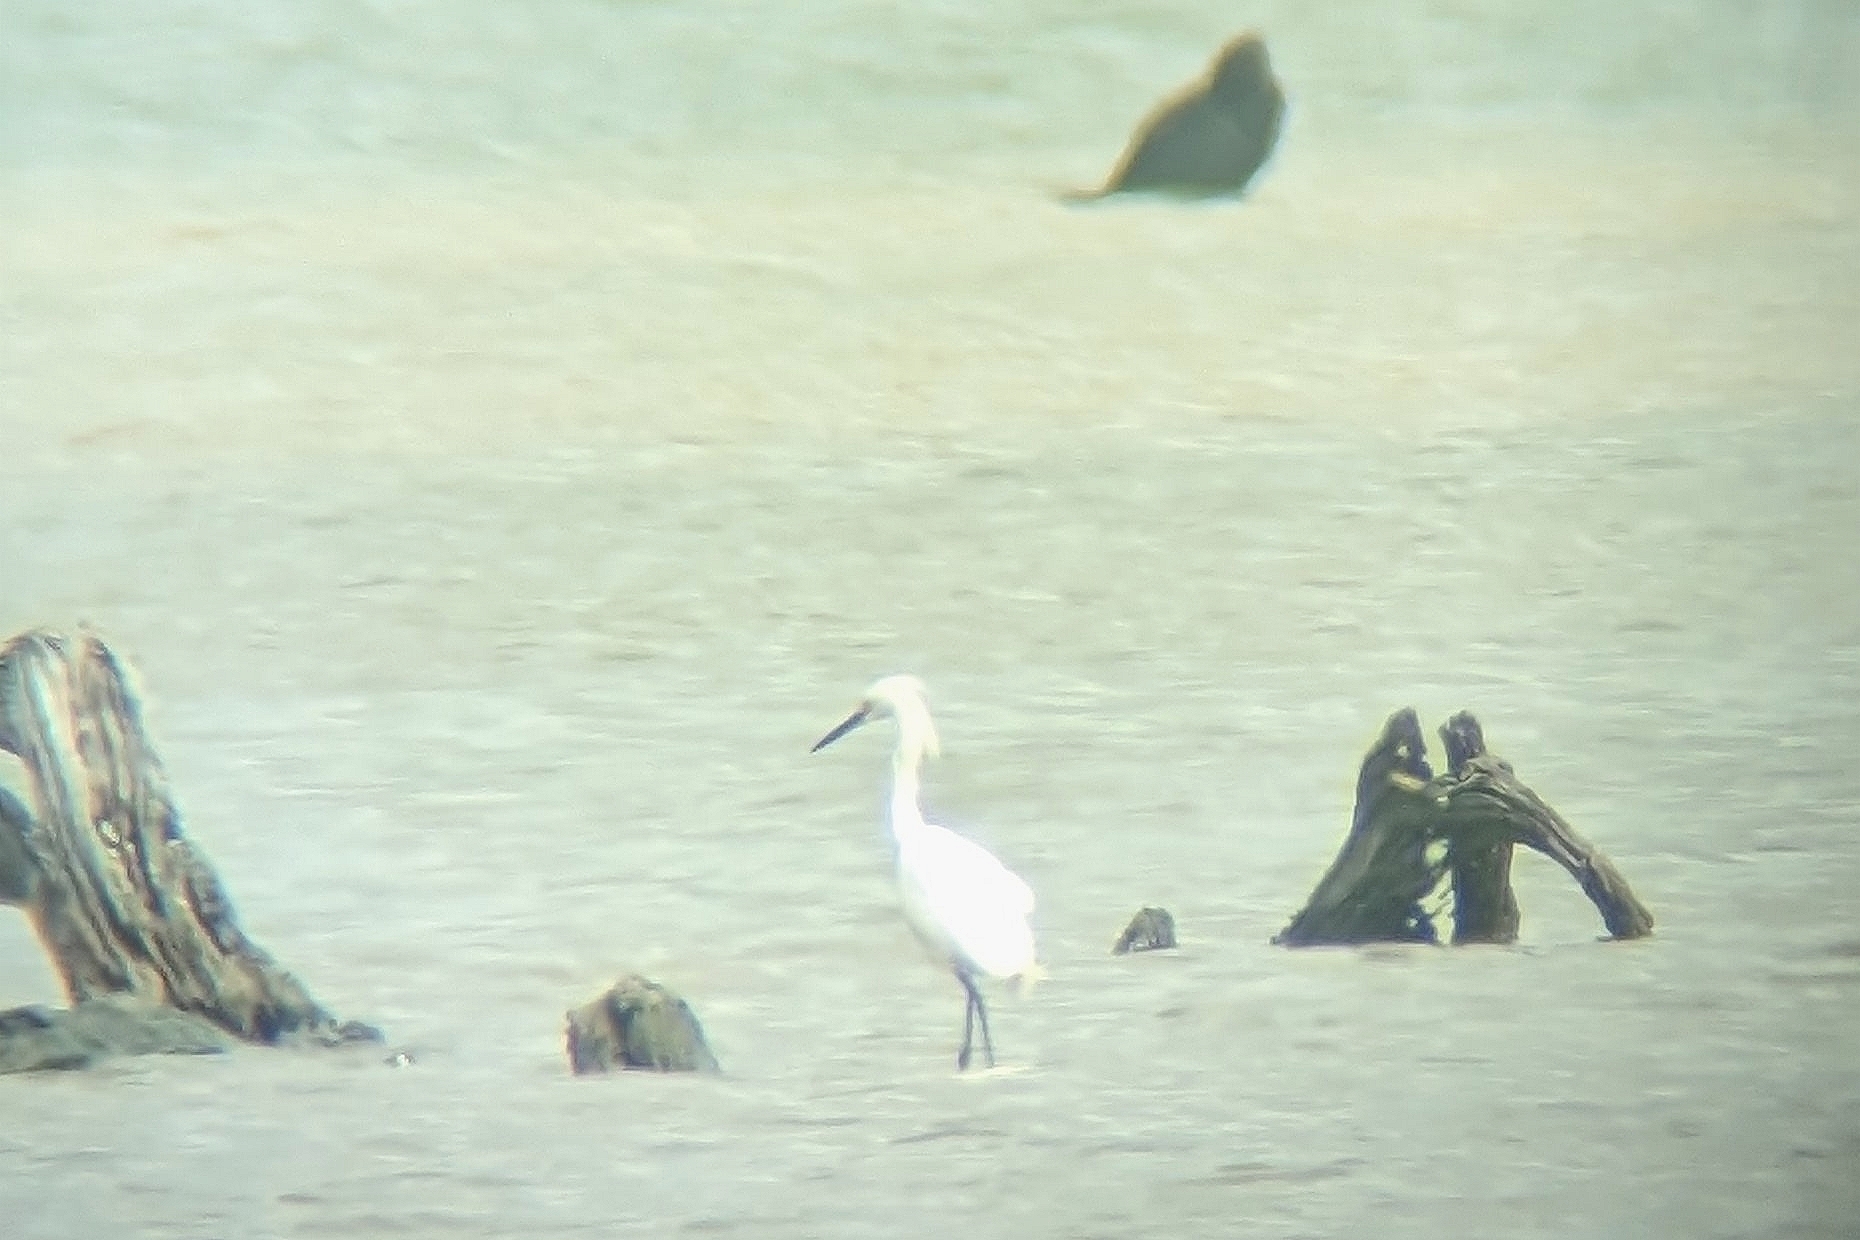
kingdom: Animalia
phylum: Chordata
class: Aves
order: Pelecaniformes
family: Ardeidae
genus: Egretta
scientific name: Egretta thula
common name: Snowy egret
